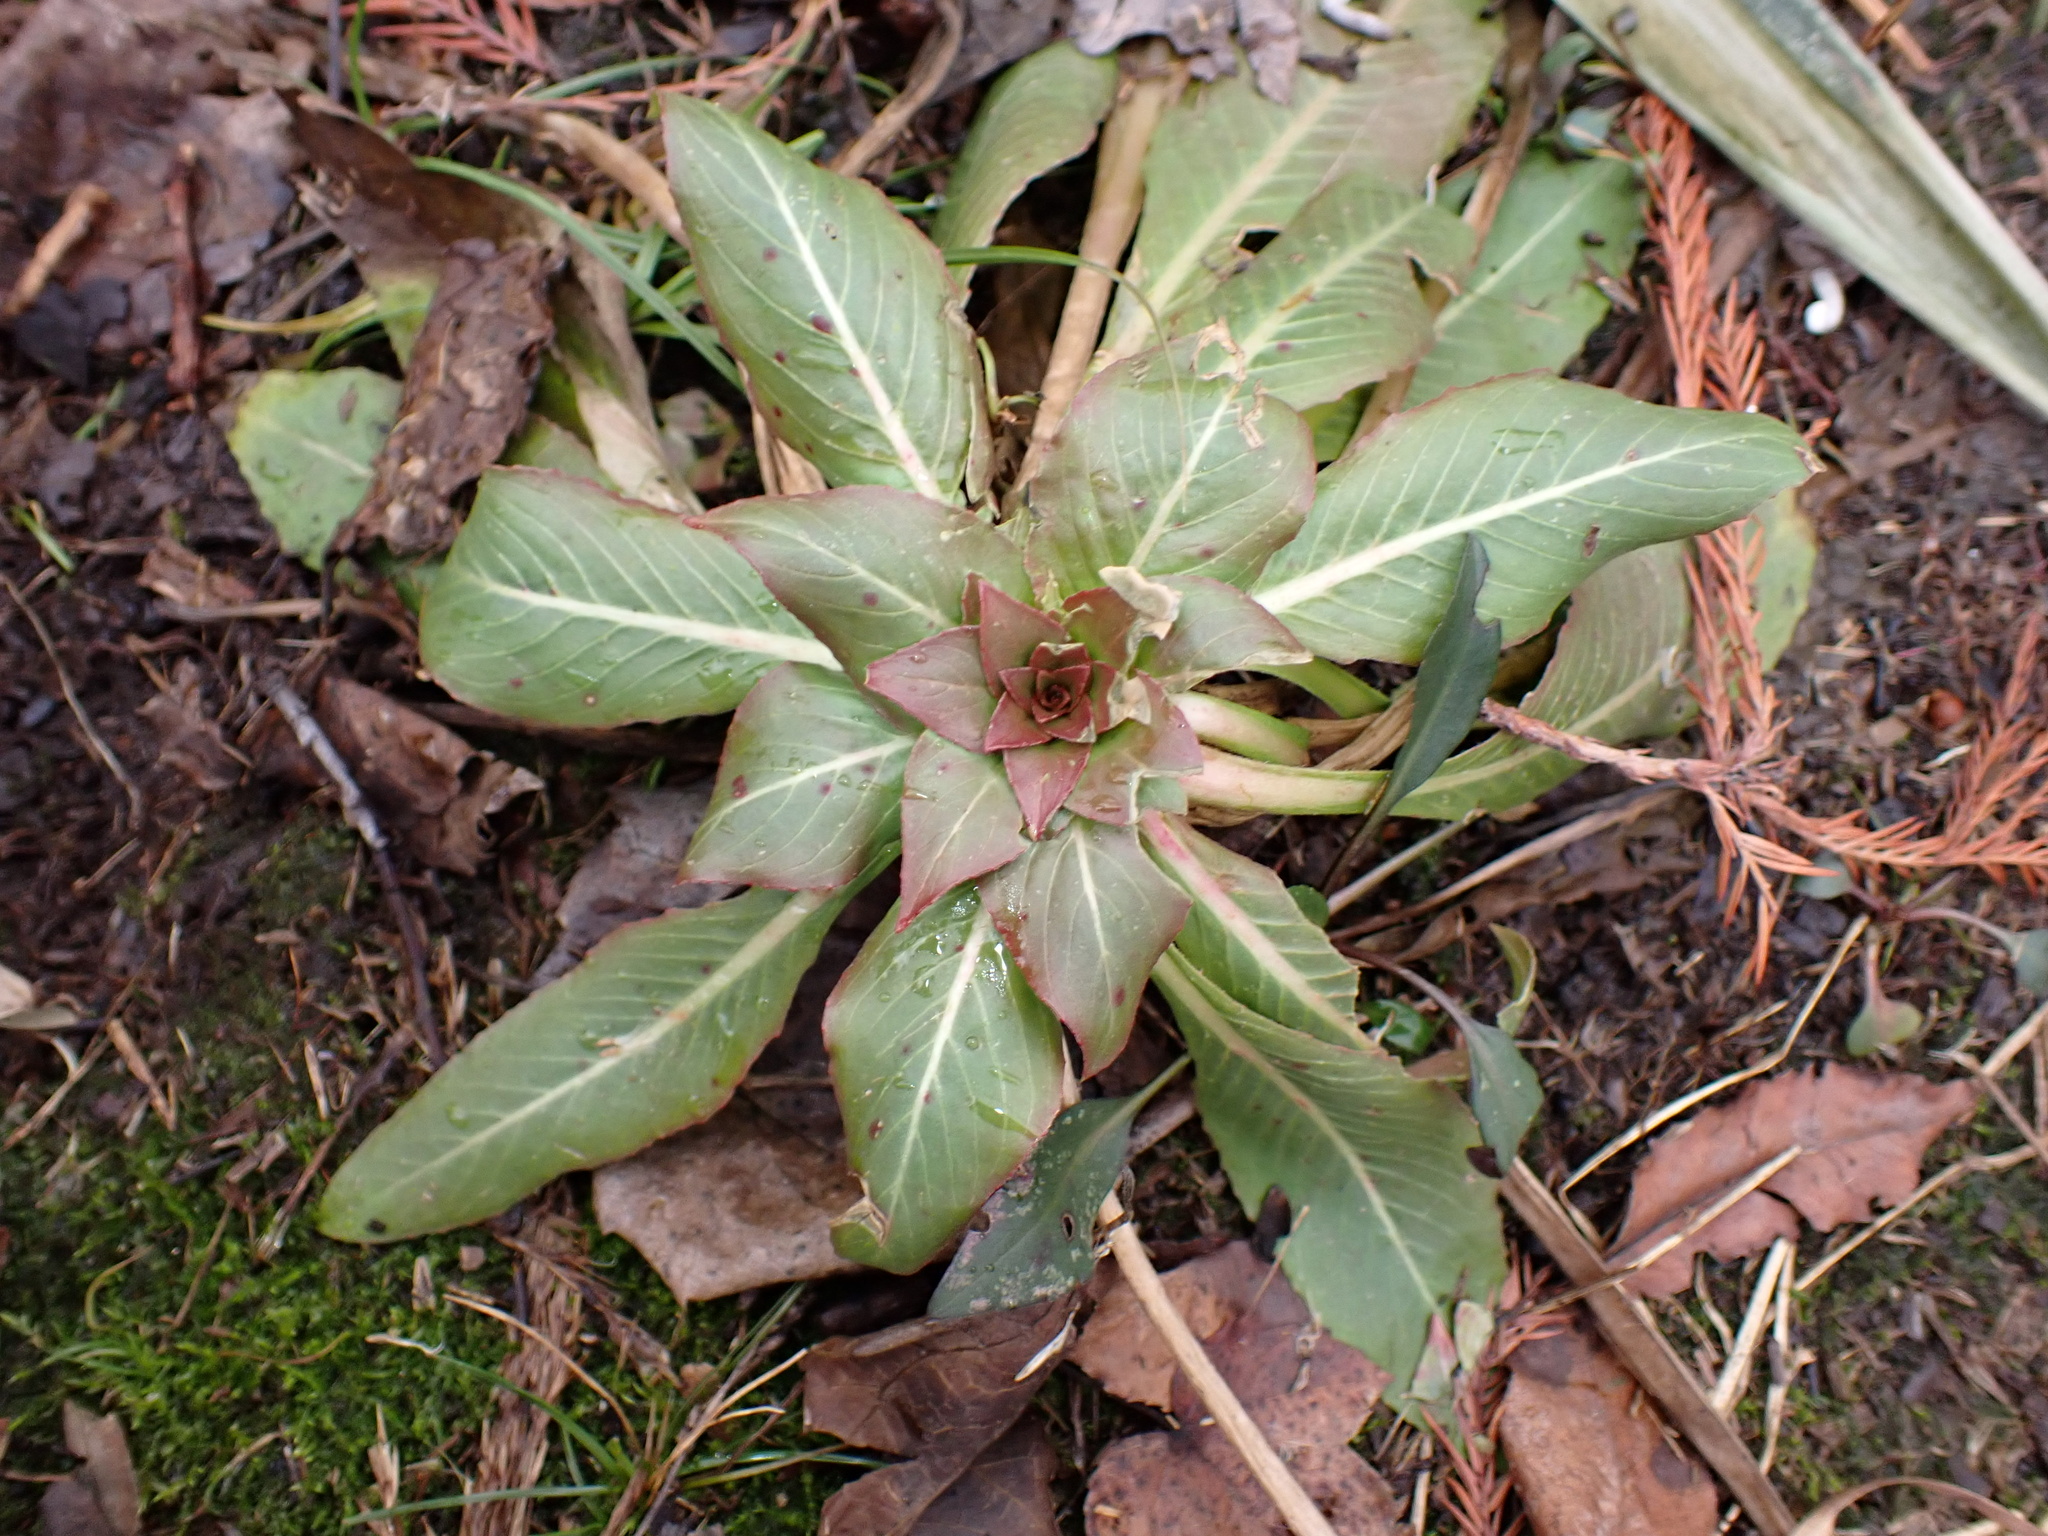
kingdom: Plantae
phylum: Tracheophyta
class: Magnoliopsida
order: Myrtales
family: Onagraceae
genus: Oenothera
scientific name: Oenothera biennis
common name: Common evening-primrose
